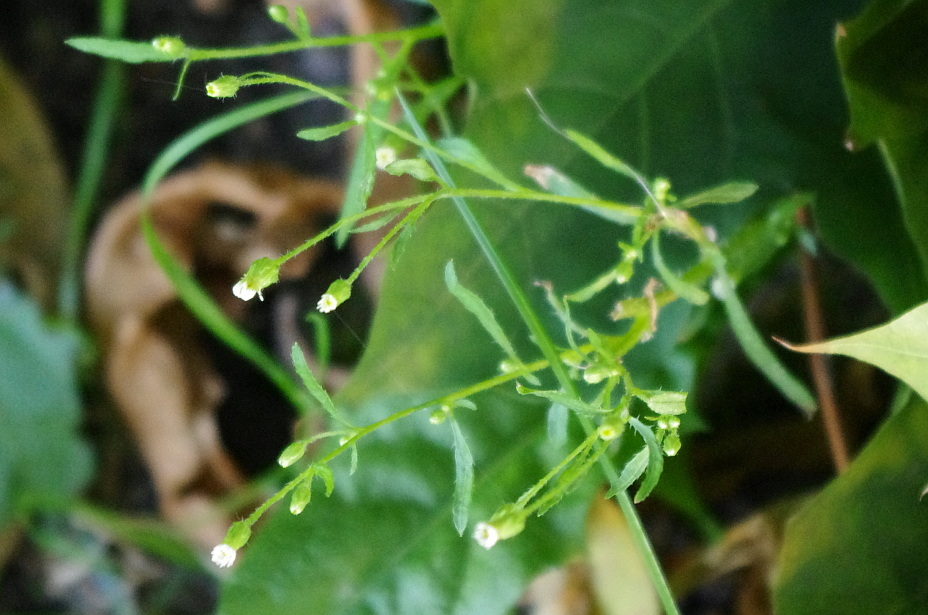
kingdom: Plantae
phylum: Tracheophyta
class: Magnoliopsida
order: Asterales
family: Asteraceae
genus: Erigeron
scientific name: Erigeron canadensis
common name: Canadian fleabane
